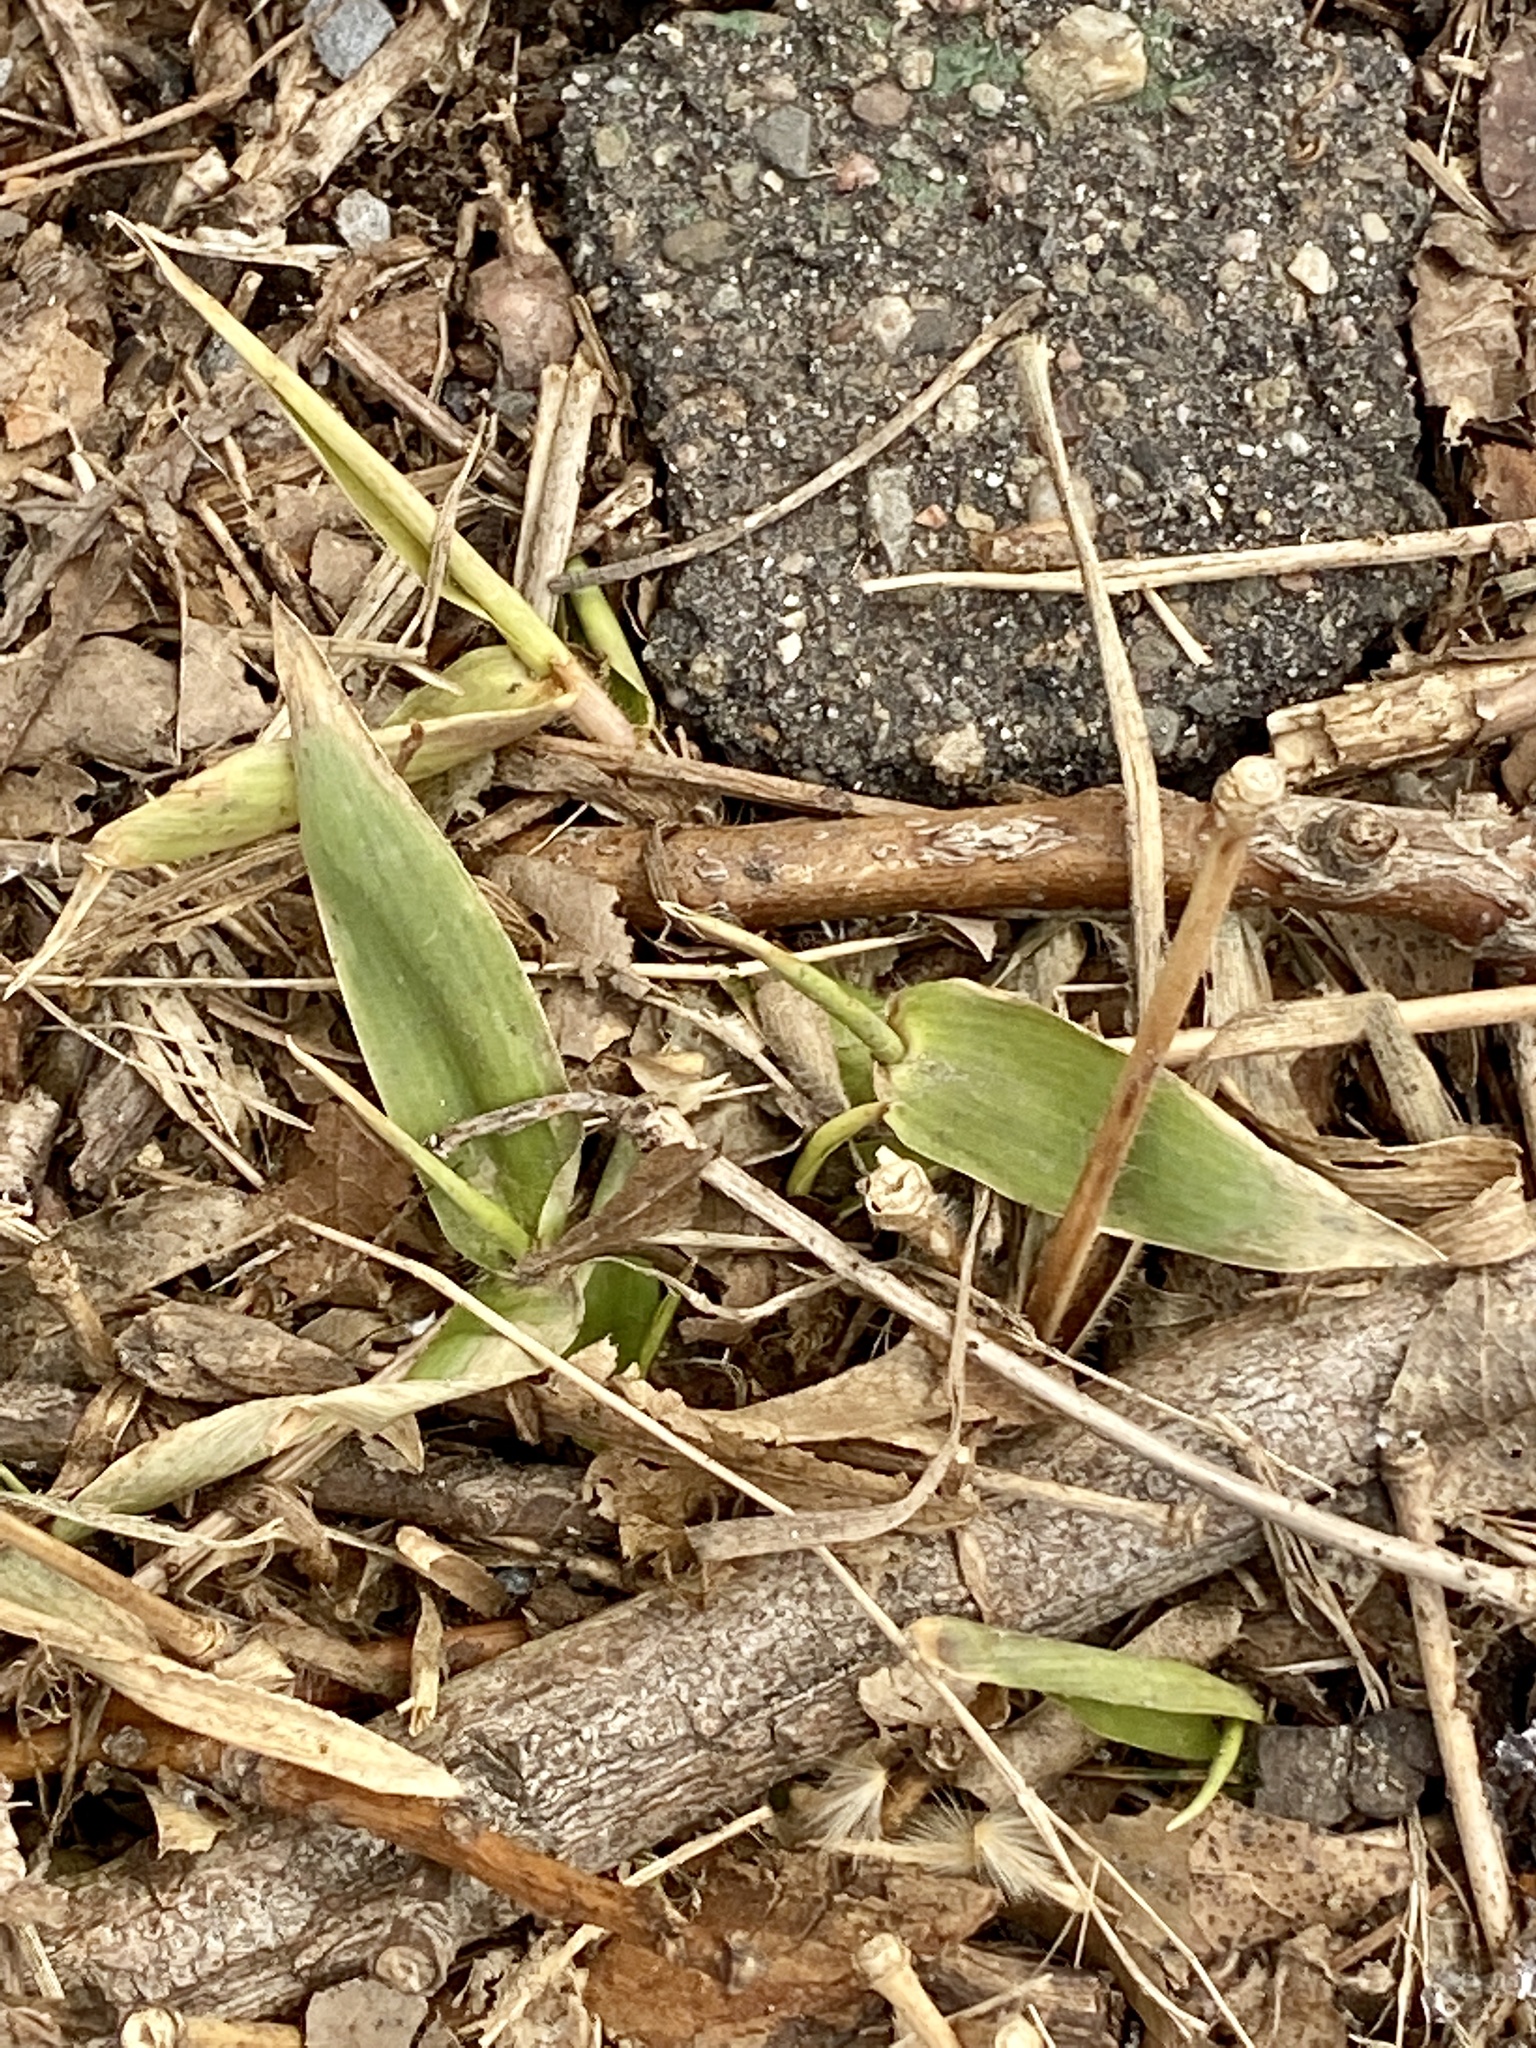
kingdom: Plantae
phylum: Tracheophyta
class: Liliopsida
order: Poales
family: Poaceae
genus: Dichanthelium
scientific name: Dichanthelium clandestinum
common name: Deer-tongue grass
